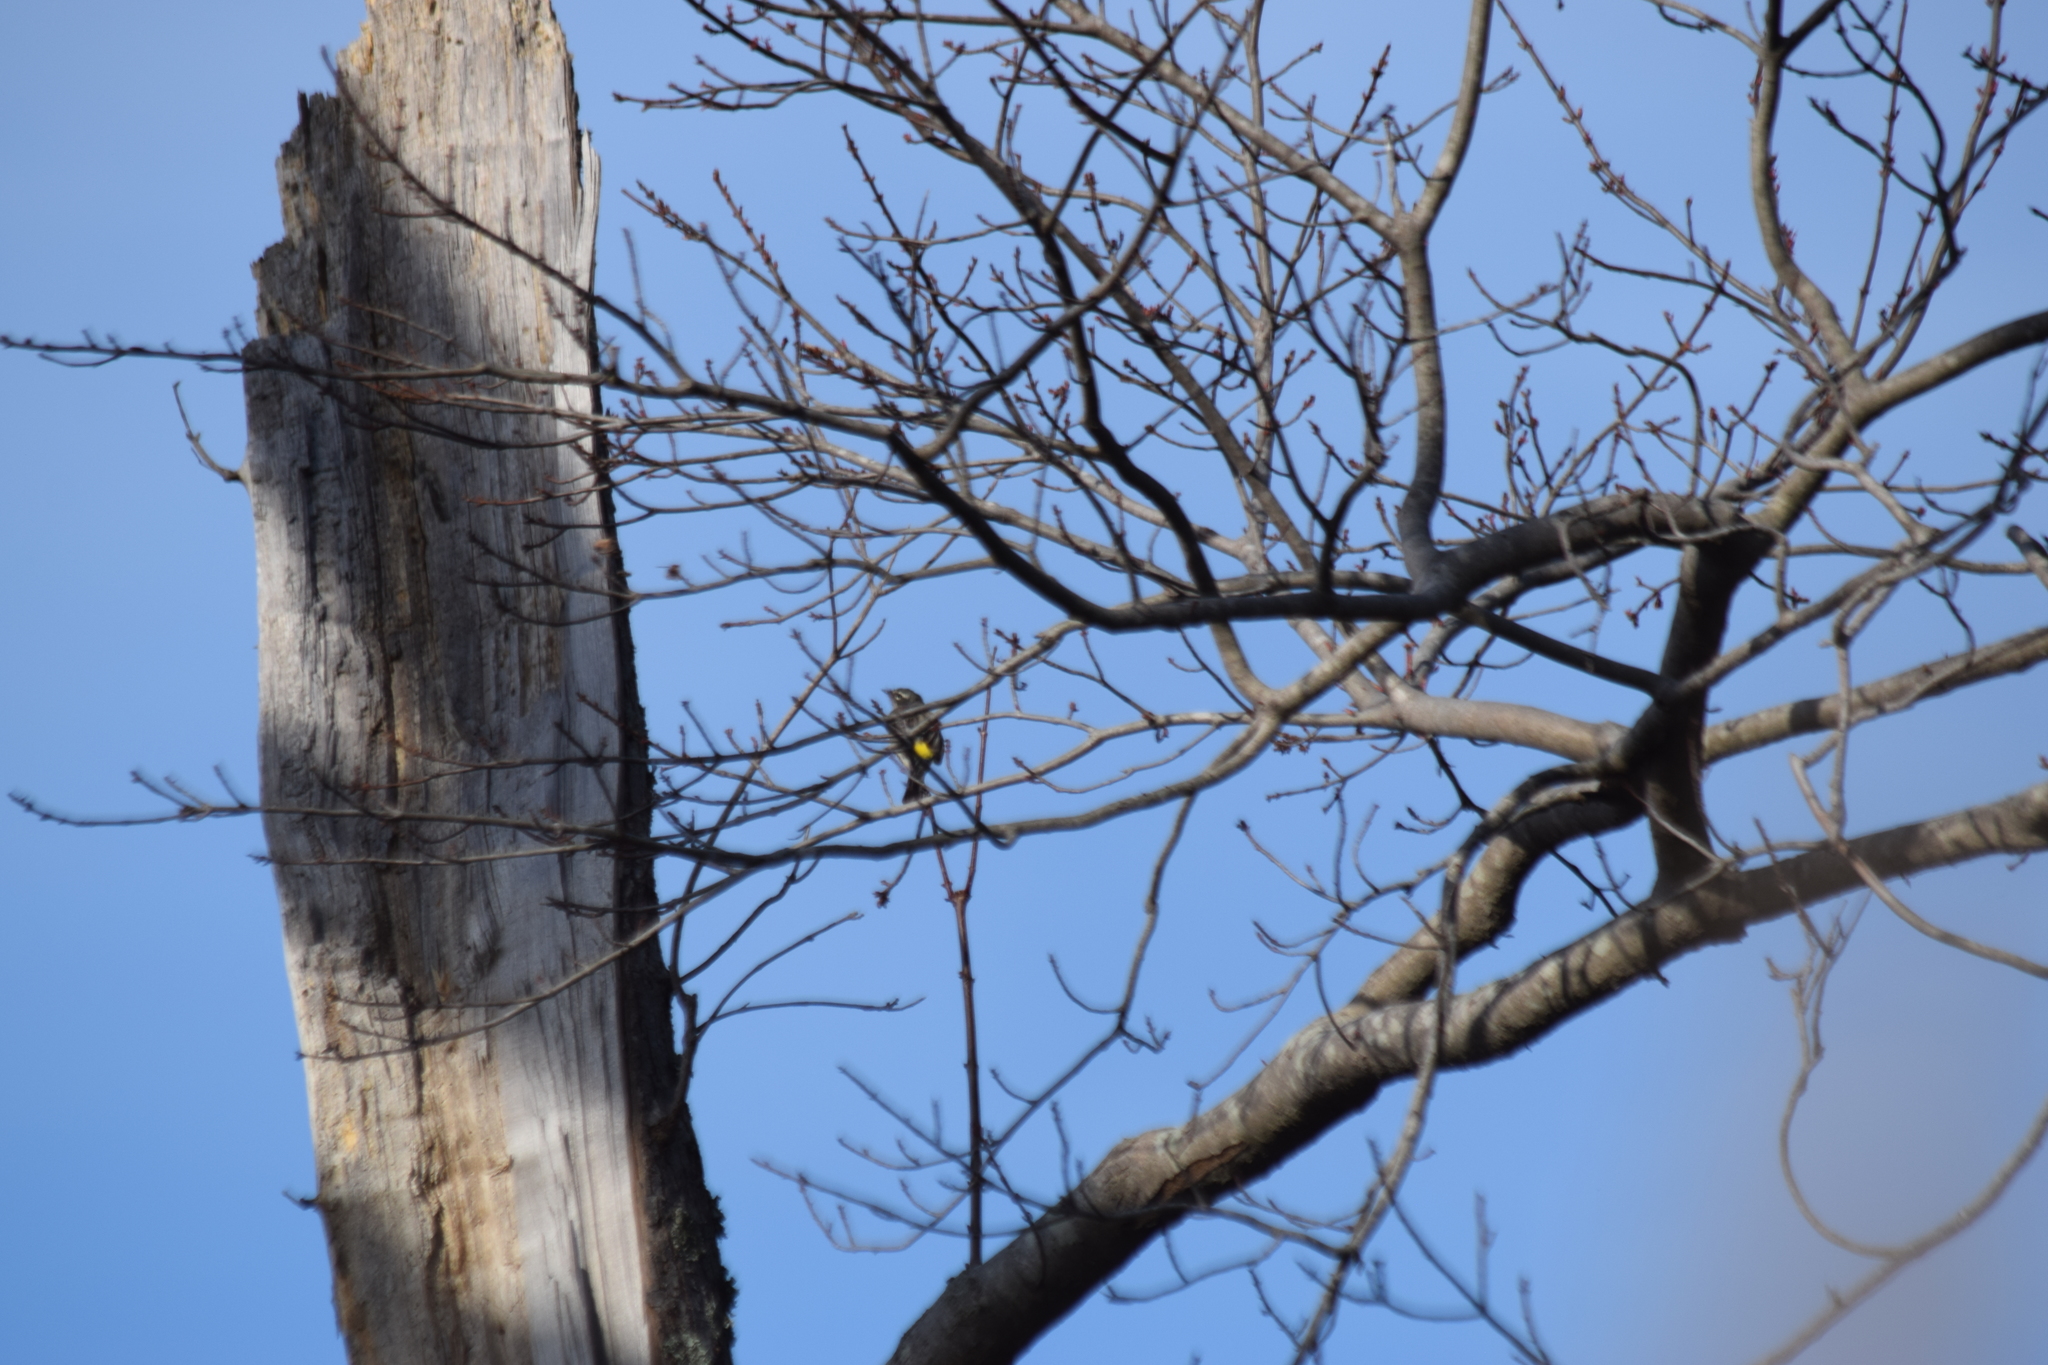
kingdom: Animalia
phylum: Chordata
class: Aves
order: Passeriformes
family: Parulidae
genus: Setophaga
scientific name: Setophaga coronata
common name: Myrtle warbler
